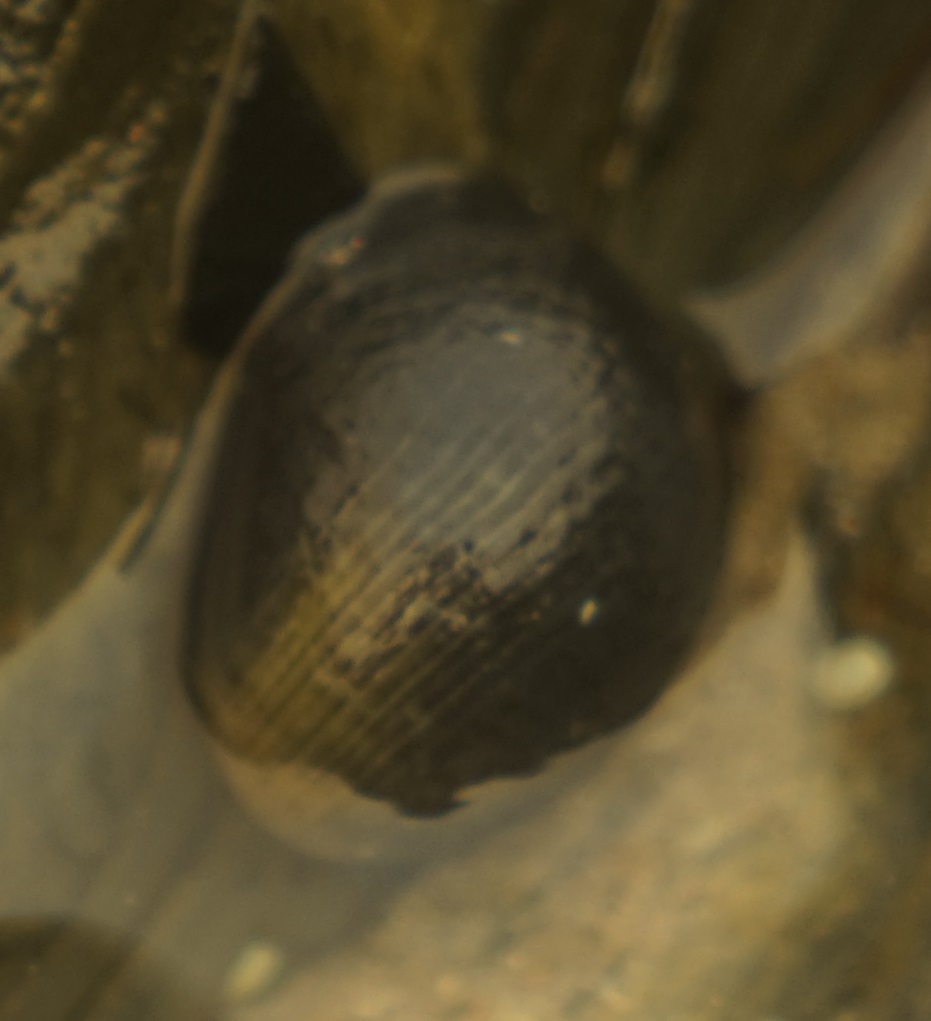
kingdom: Animalia
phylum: Mollusca
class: Gastropoda
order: Cycloneritida
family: Neritidae
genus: Nerita
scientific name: Nerita melanotragus
